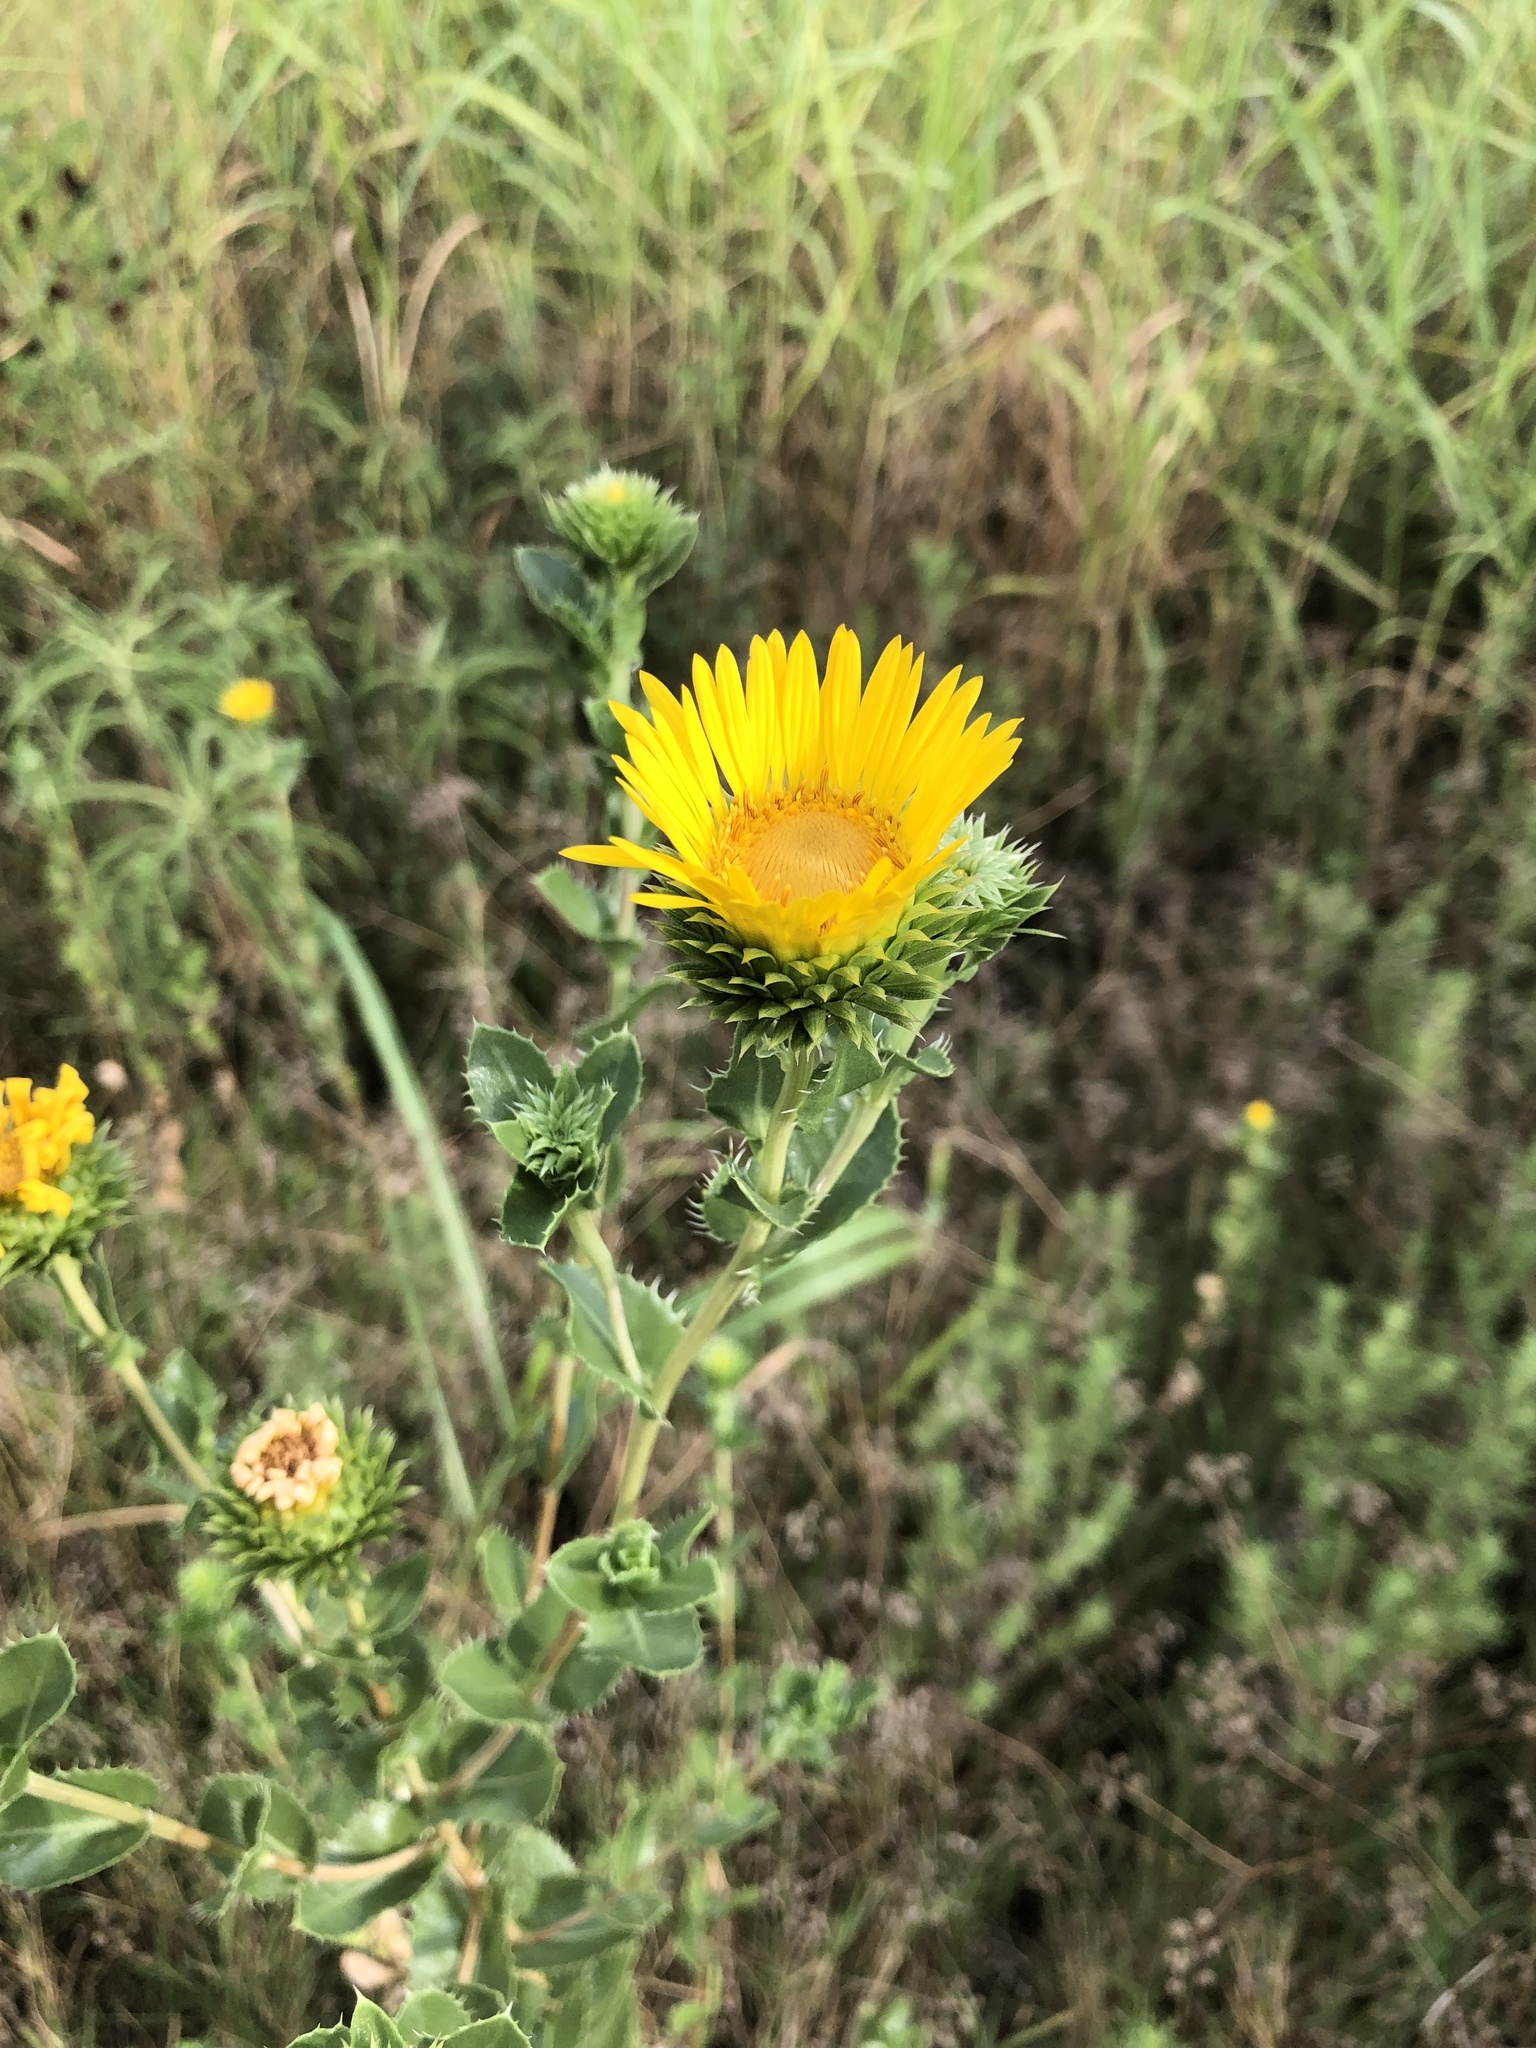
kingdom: Plantae
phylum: Tracheophyta
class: Magnoliopsida
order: Asterales
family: Asteraceae
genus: Grindelia
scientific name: Grindelia ciliata
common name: Goldenweed
